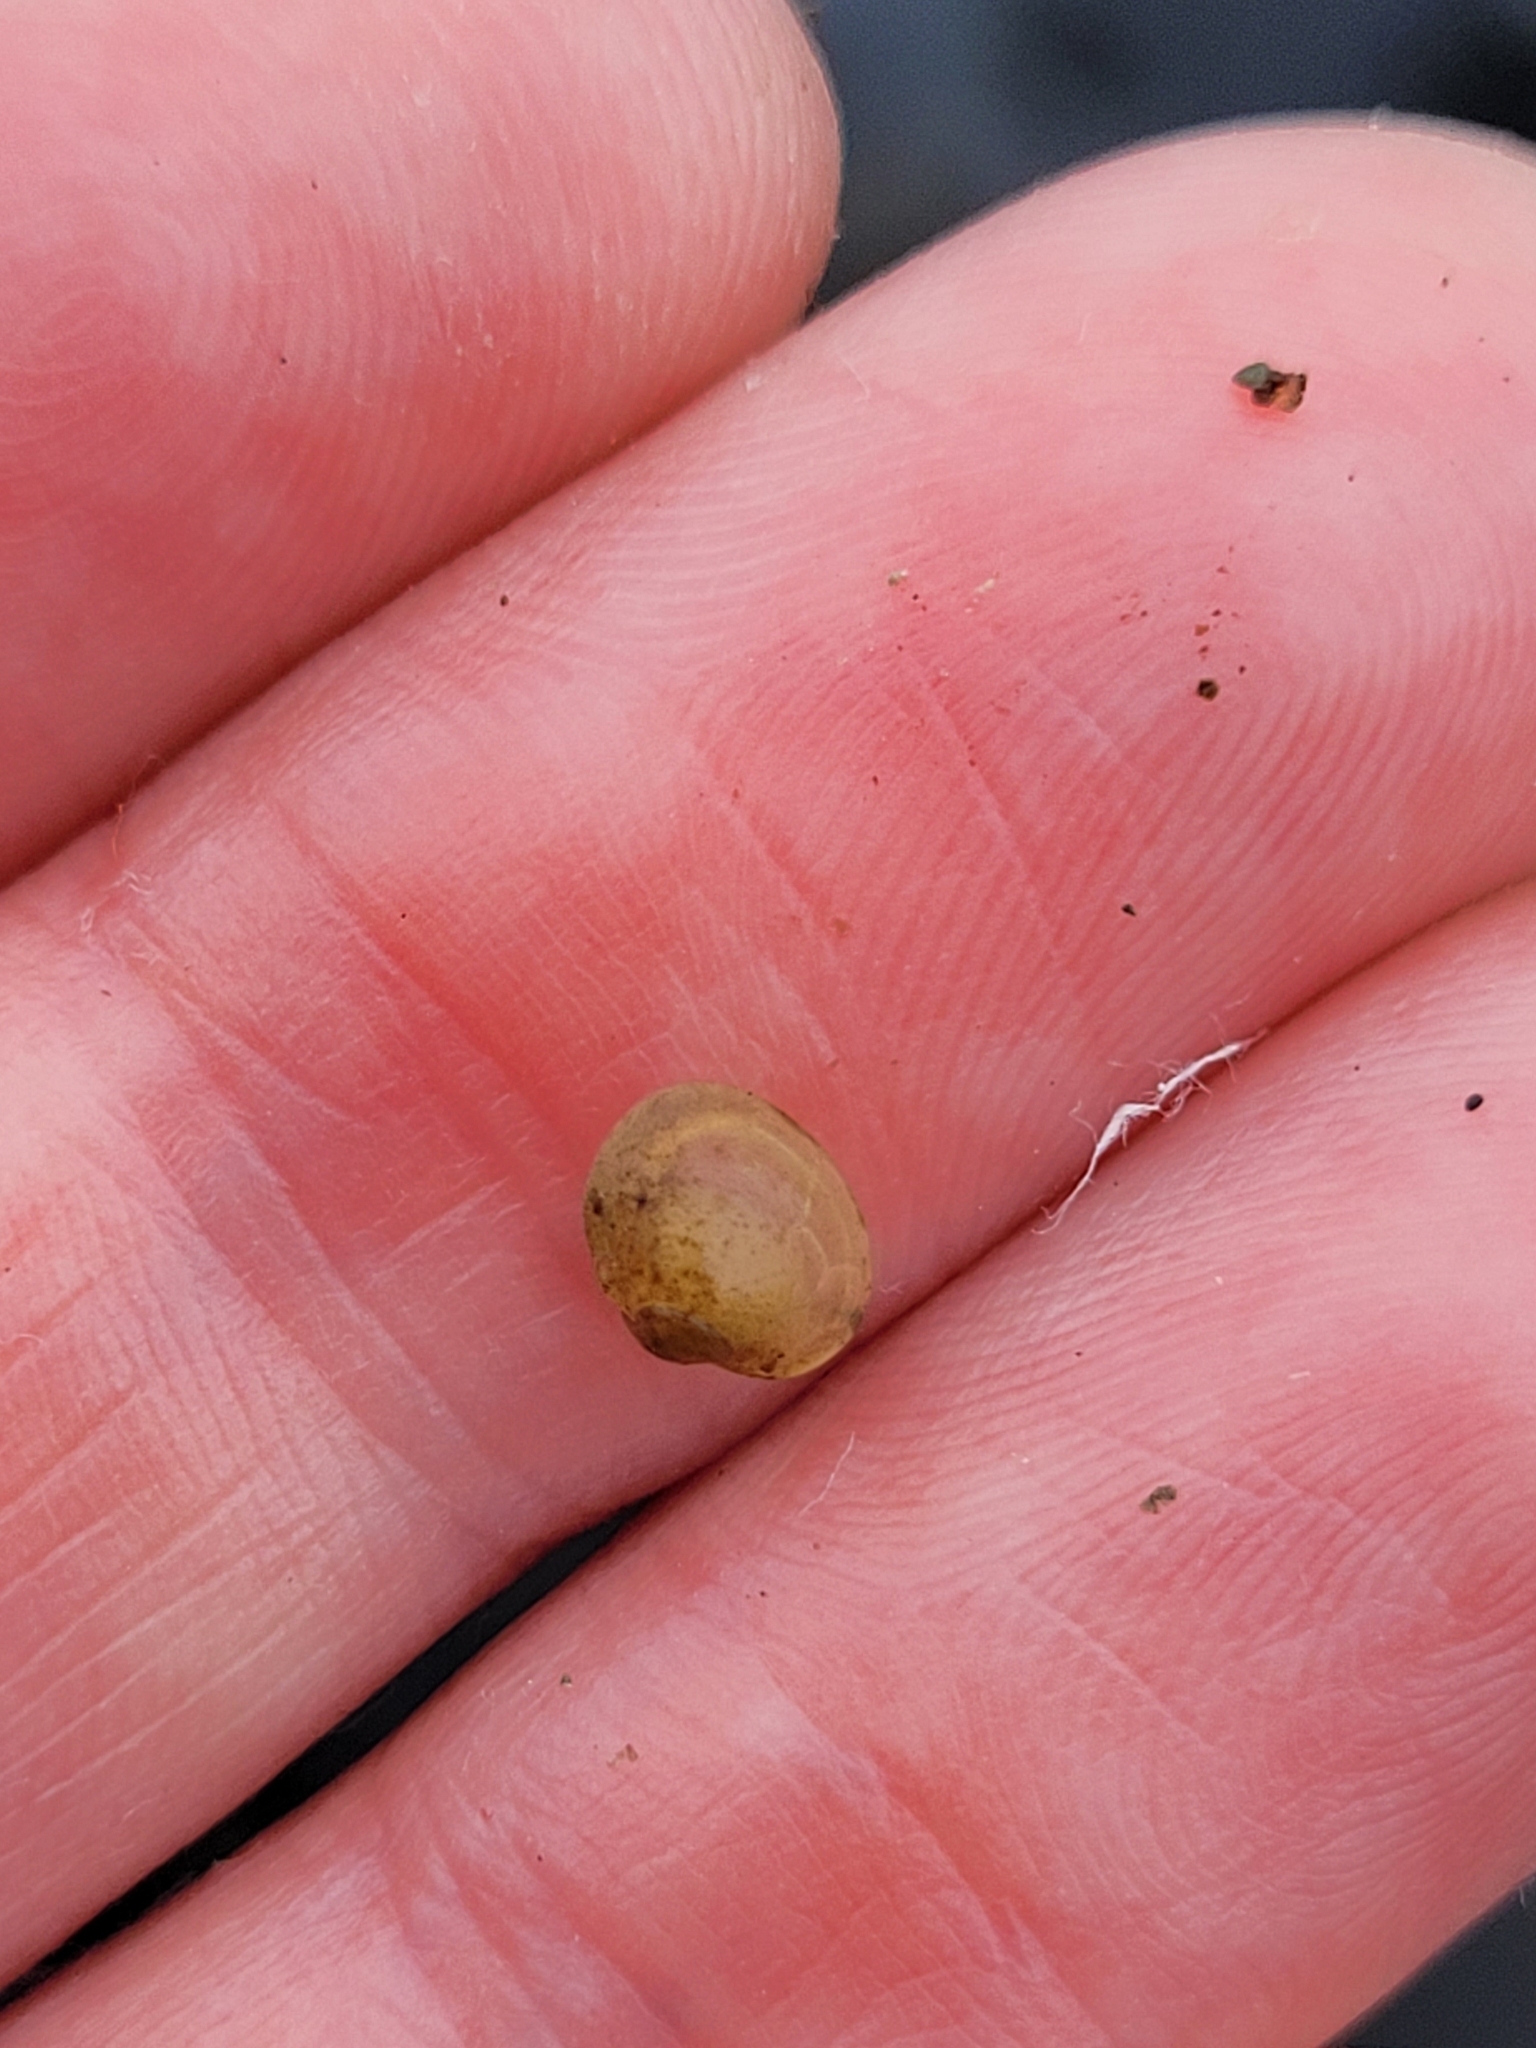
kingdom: Animalia
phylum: Mollusca
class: Bivalvia
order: Sphaeriida
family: Sphaeriidae
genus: Musculium
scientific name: Musculium partumeium
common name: Swamp fingernailclam
